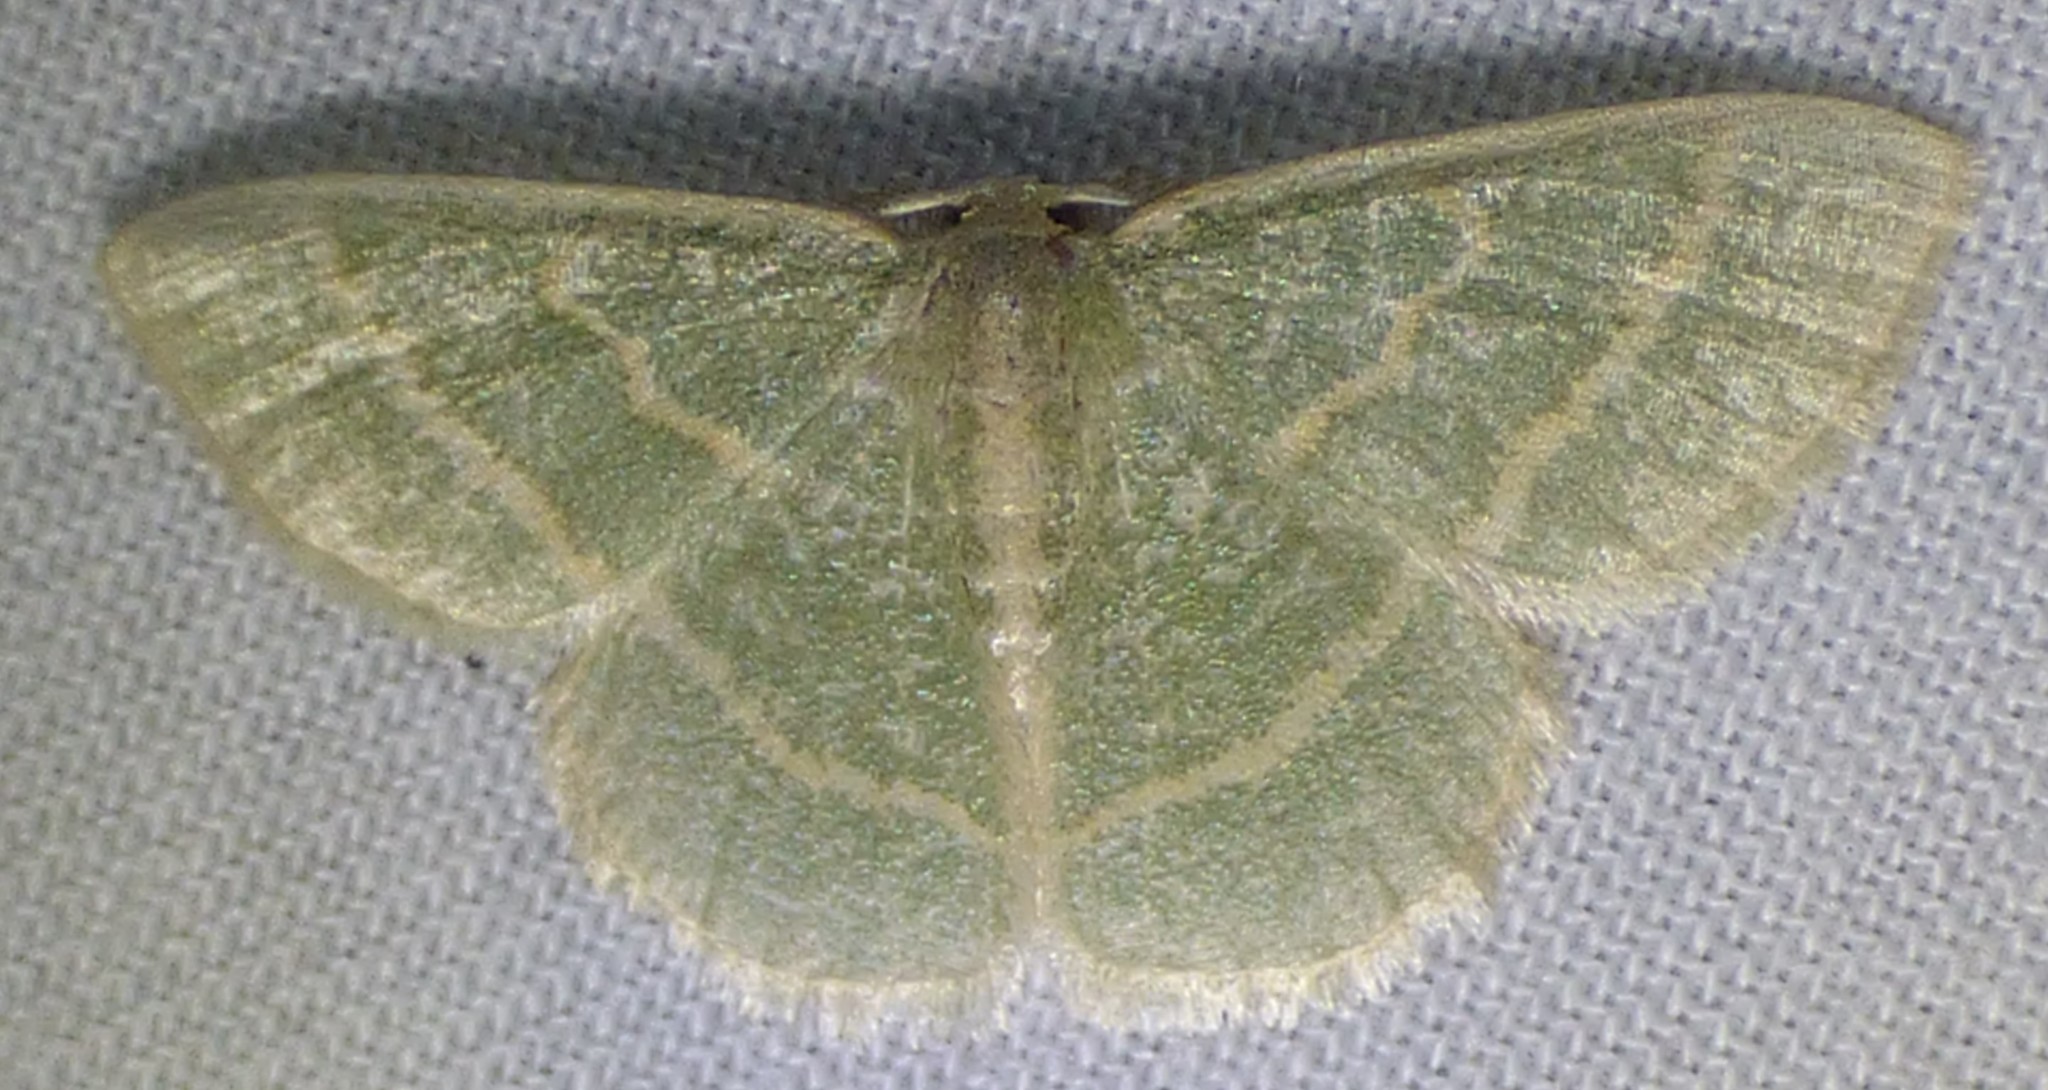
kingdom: Animalia
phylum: Arthropoda
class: Insecta
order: Lepidoptera
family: Geometridae
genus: Chlorochlamys
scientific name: Chlorochlamys chloroleucaria
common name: Blackberry looper
